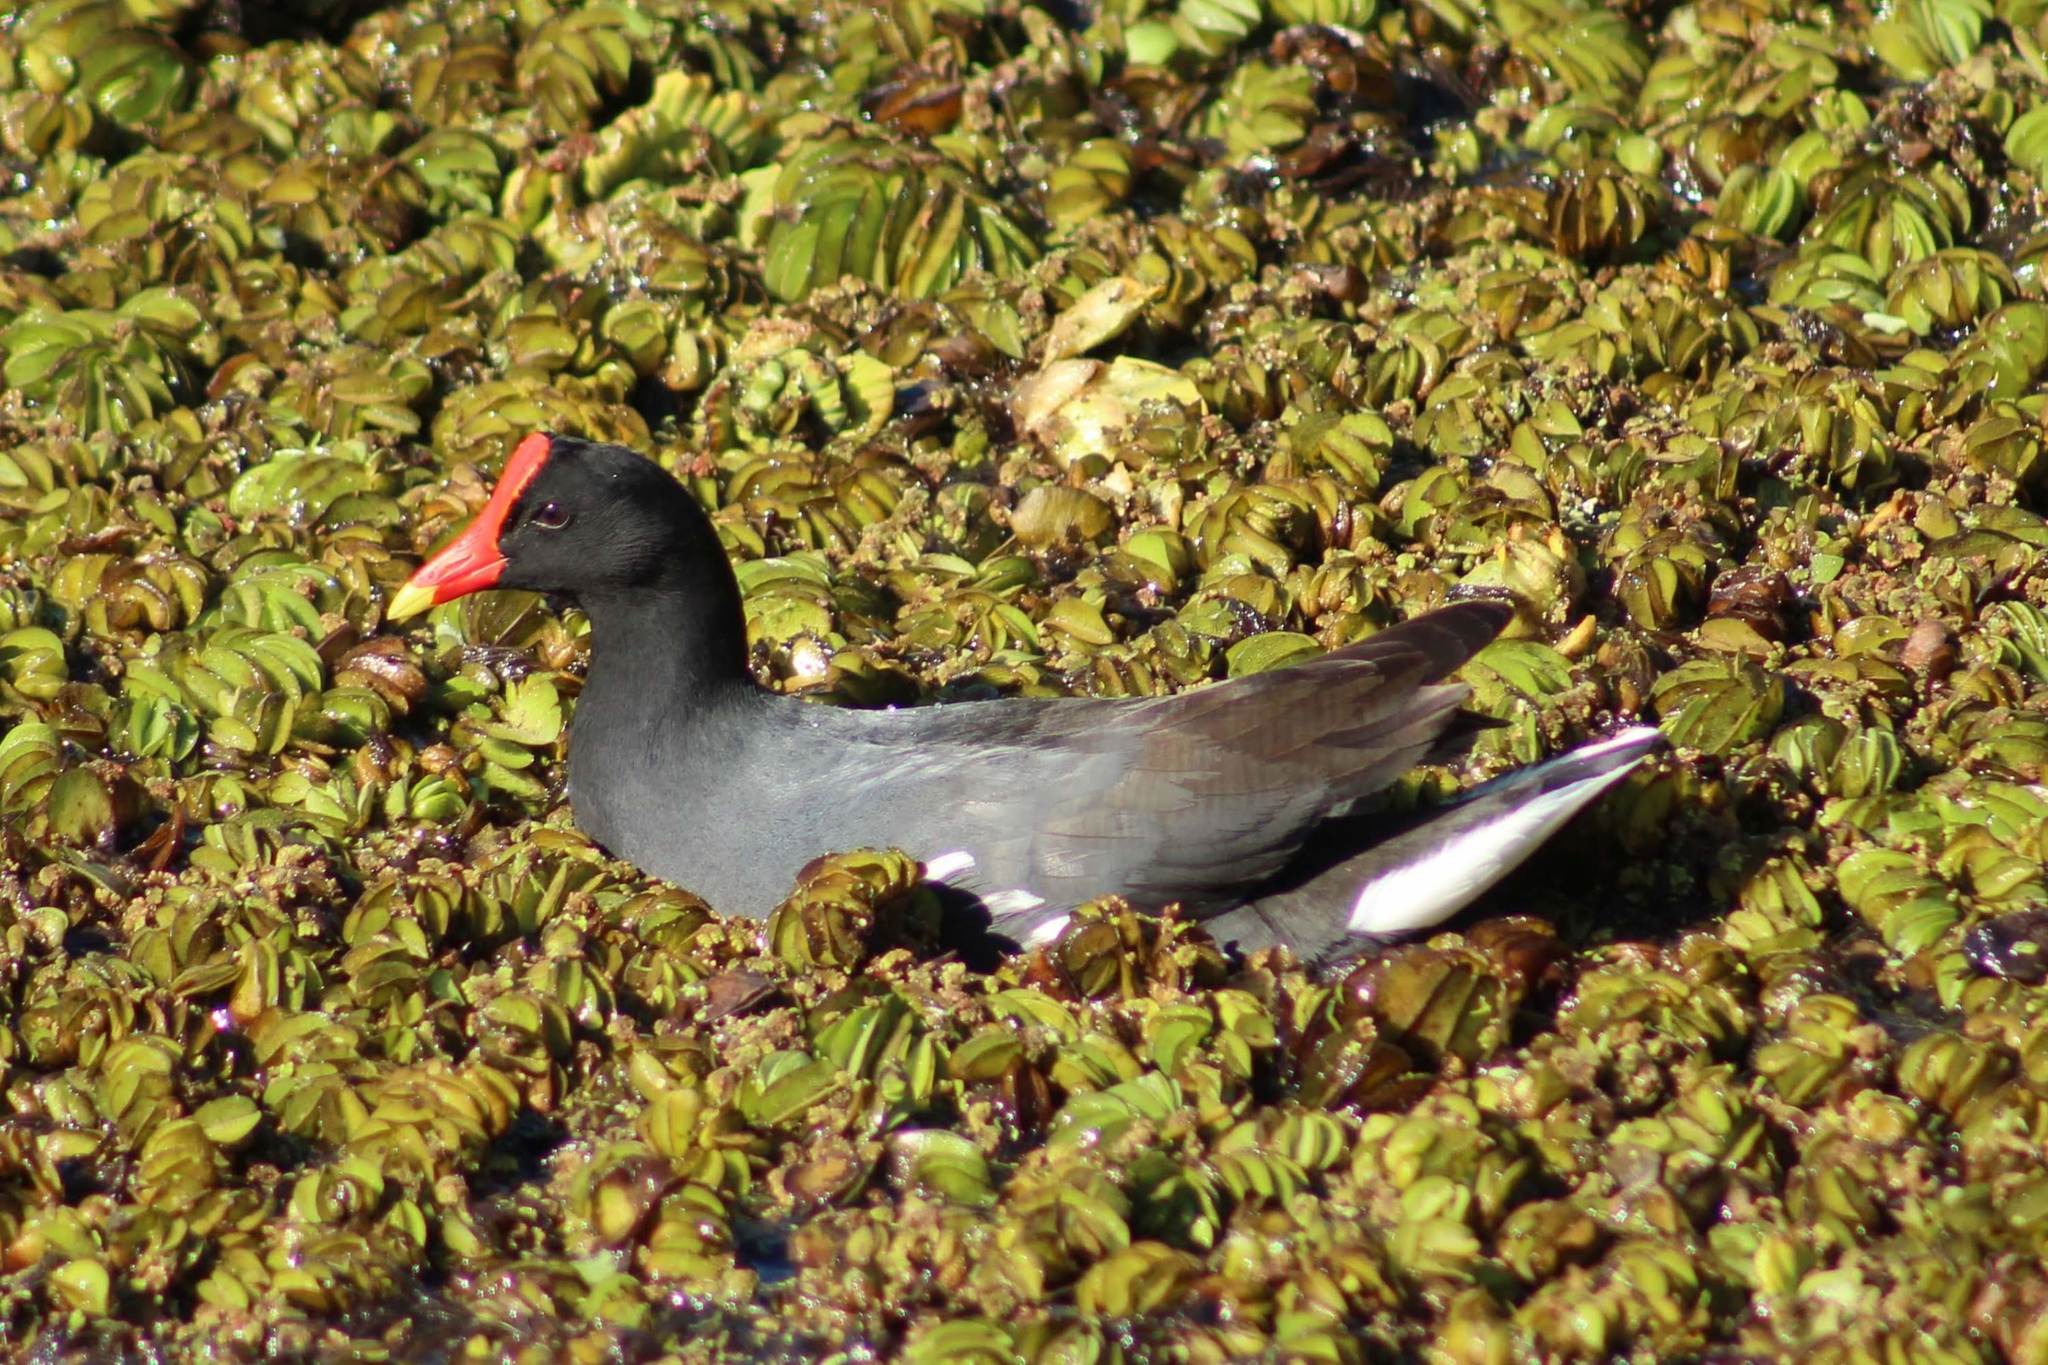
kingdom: Animalia
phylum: Chordata
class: Aves
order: Gruiformes
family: Rallidae
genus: Gallinula
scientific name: Gallinula chloropus
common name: Common moorhen
